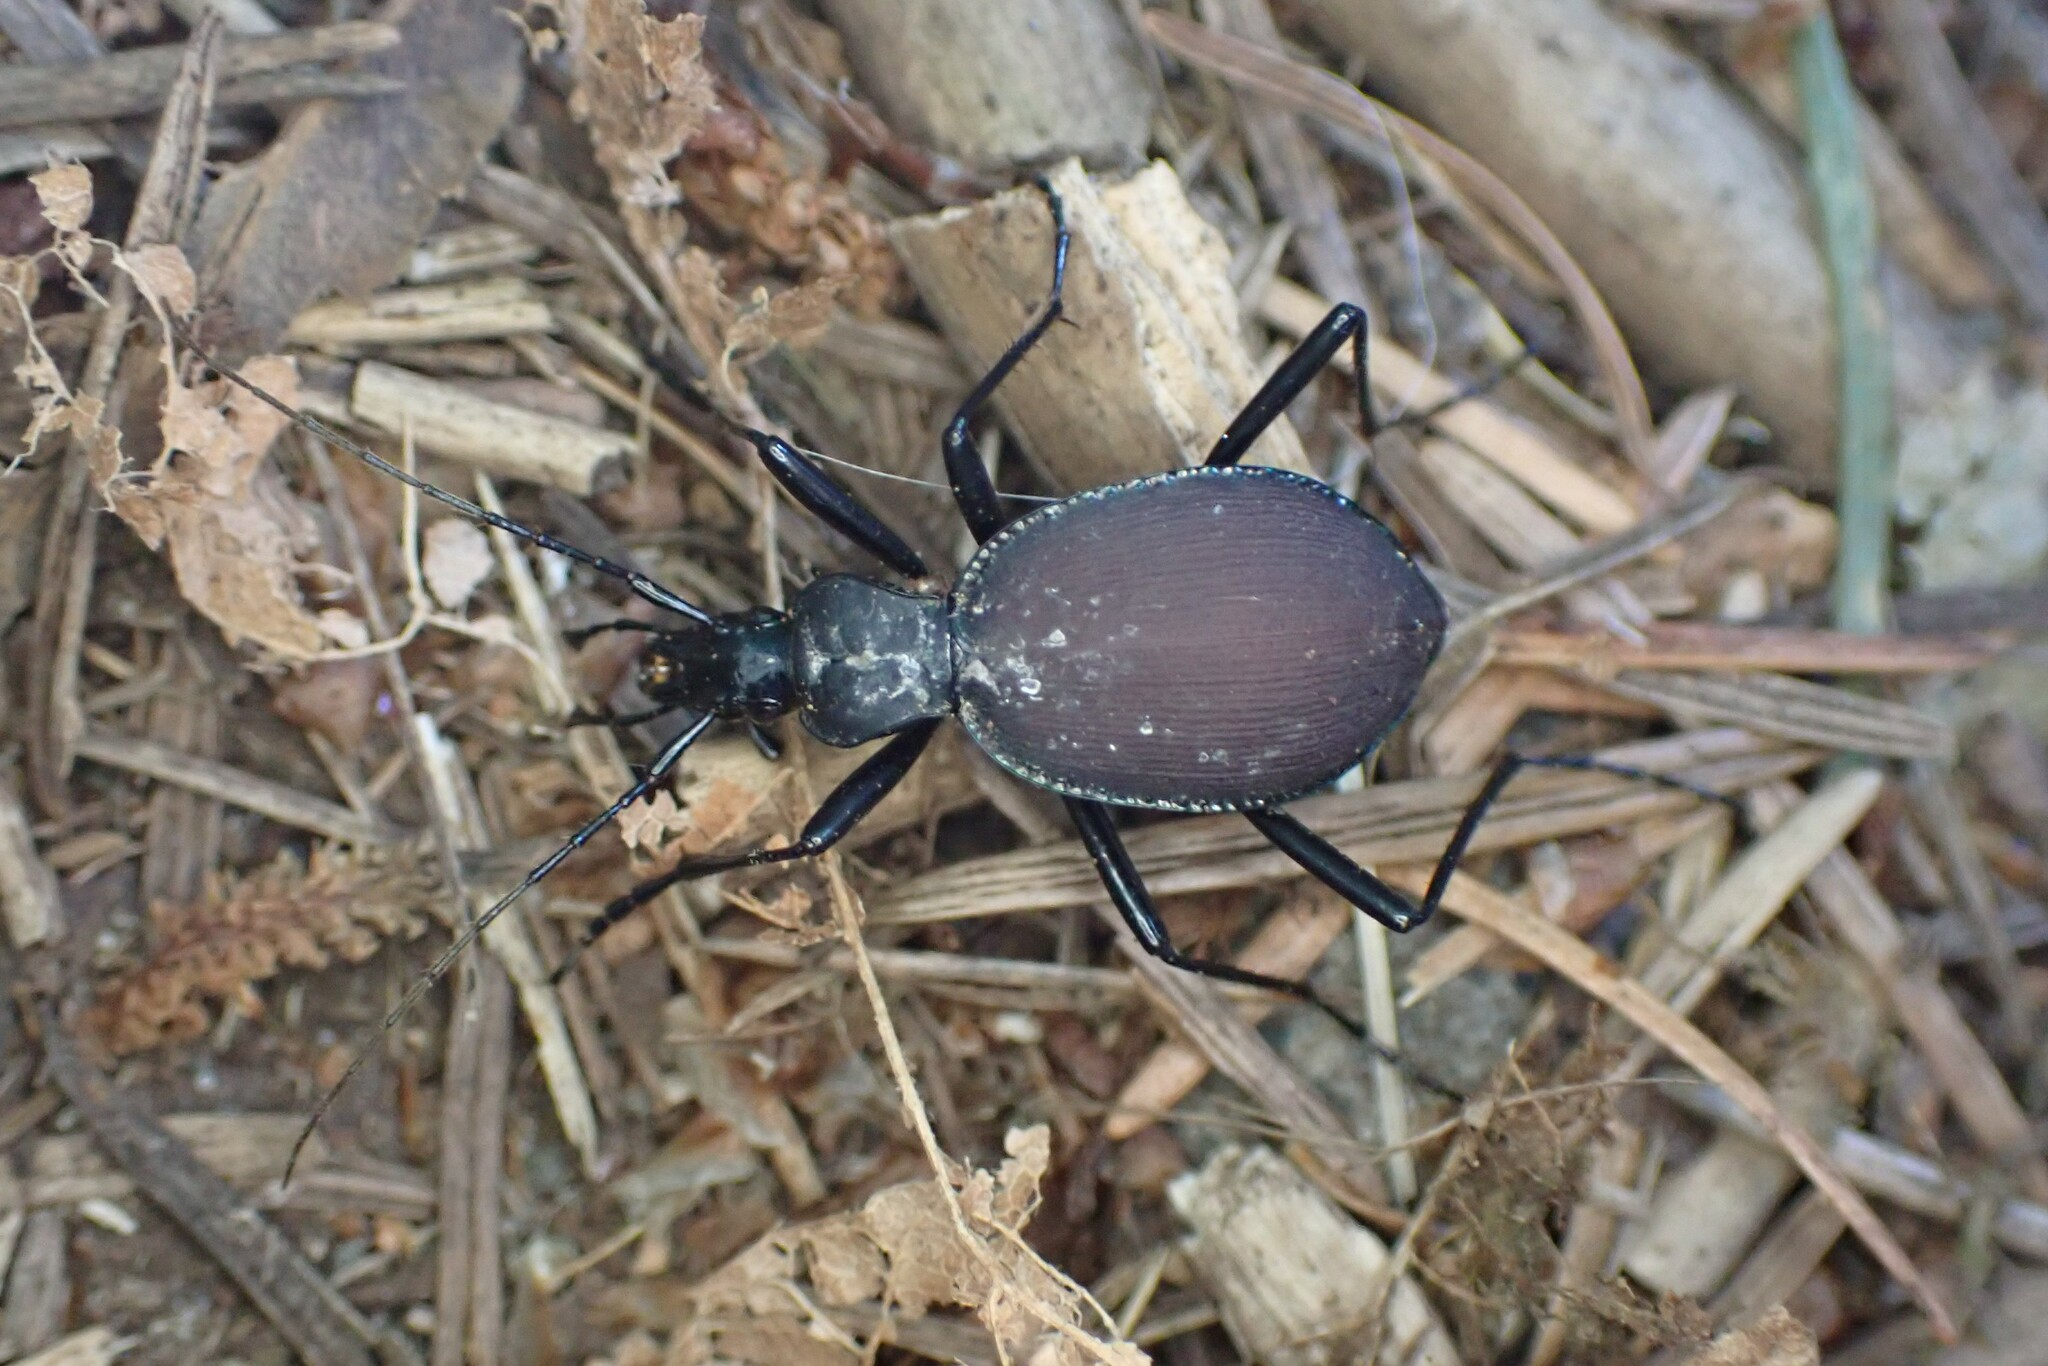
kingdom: Animalia
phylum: Arthropoda
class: Insecta
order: Coleoptera
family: Carabidae
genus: Scaphinotus
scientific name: Scaphinotus angusticollis
